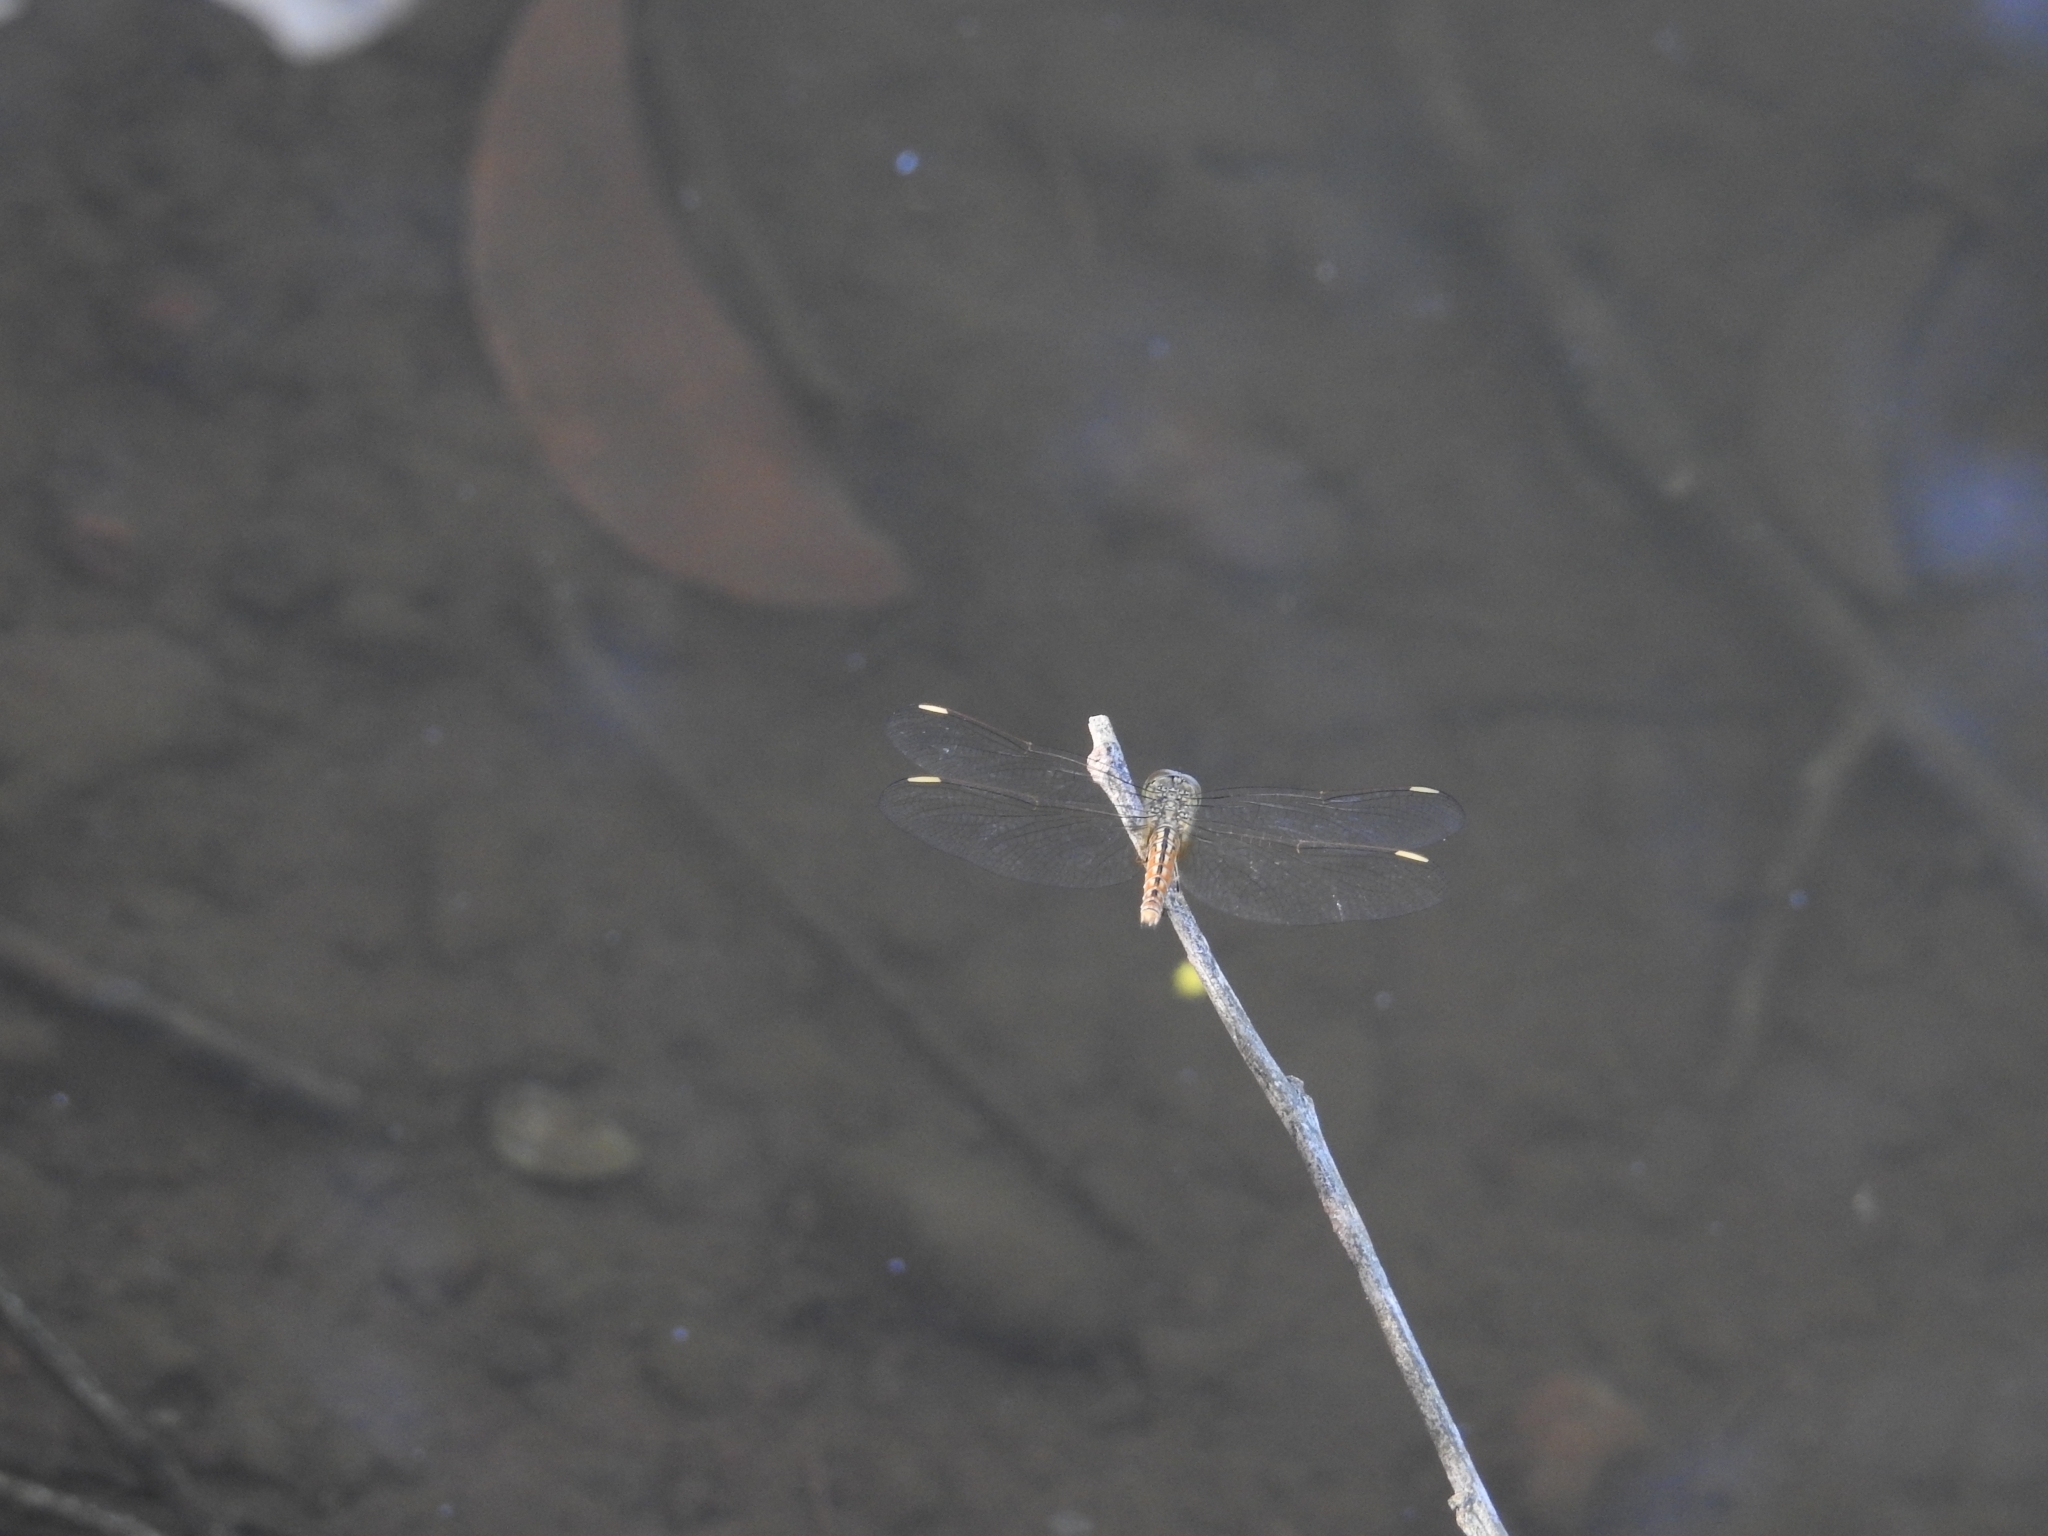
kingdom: Animalia
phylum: Arthropoda
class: Insecta
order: Odonata
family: Libellulidae
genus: Brachythemis
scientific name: Brachythemis contaminata
